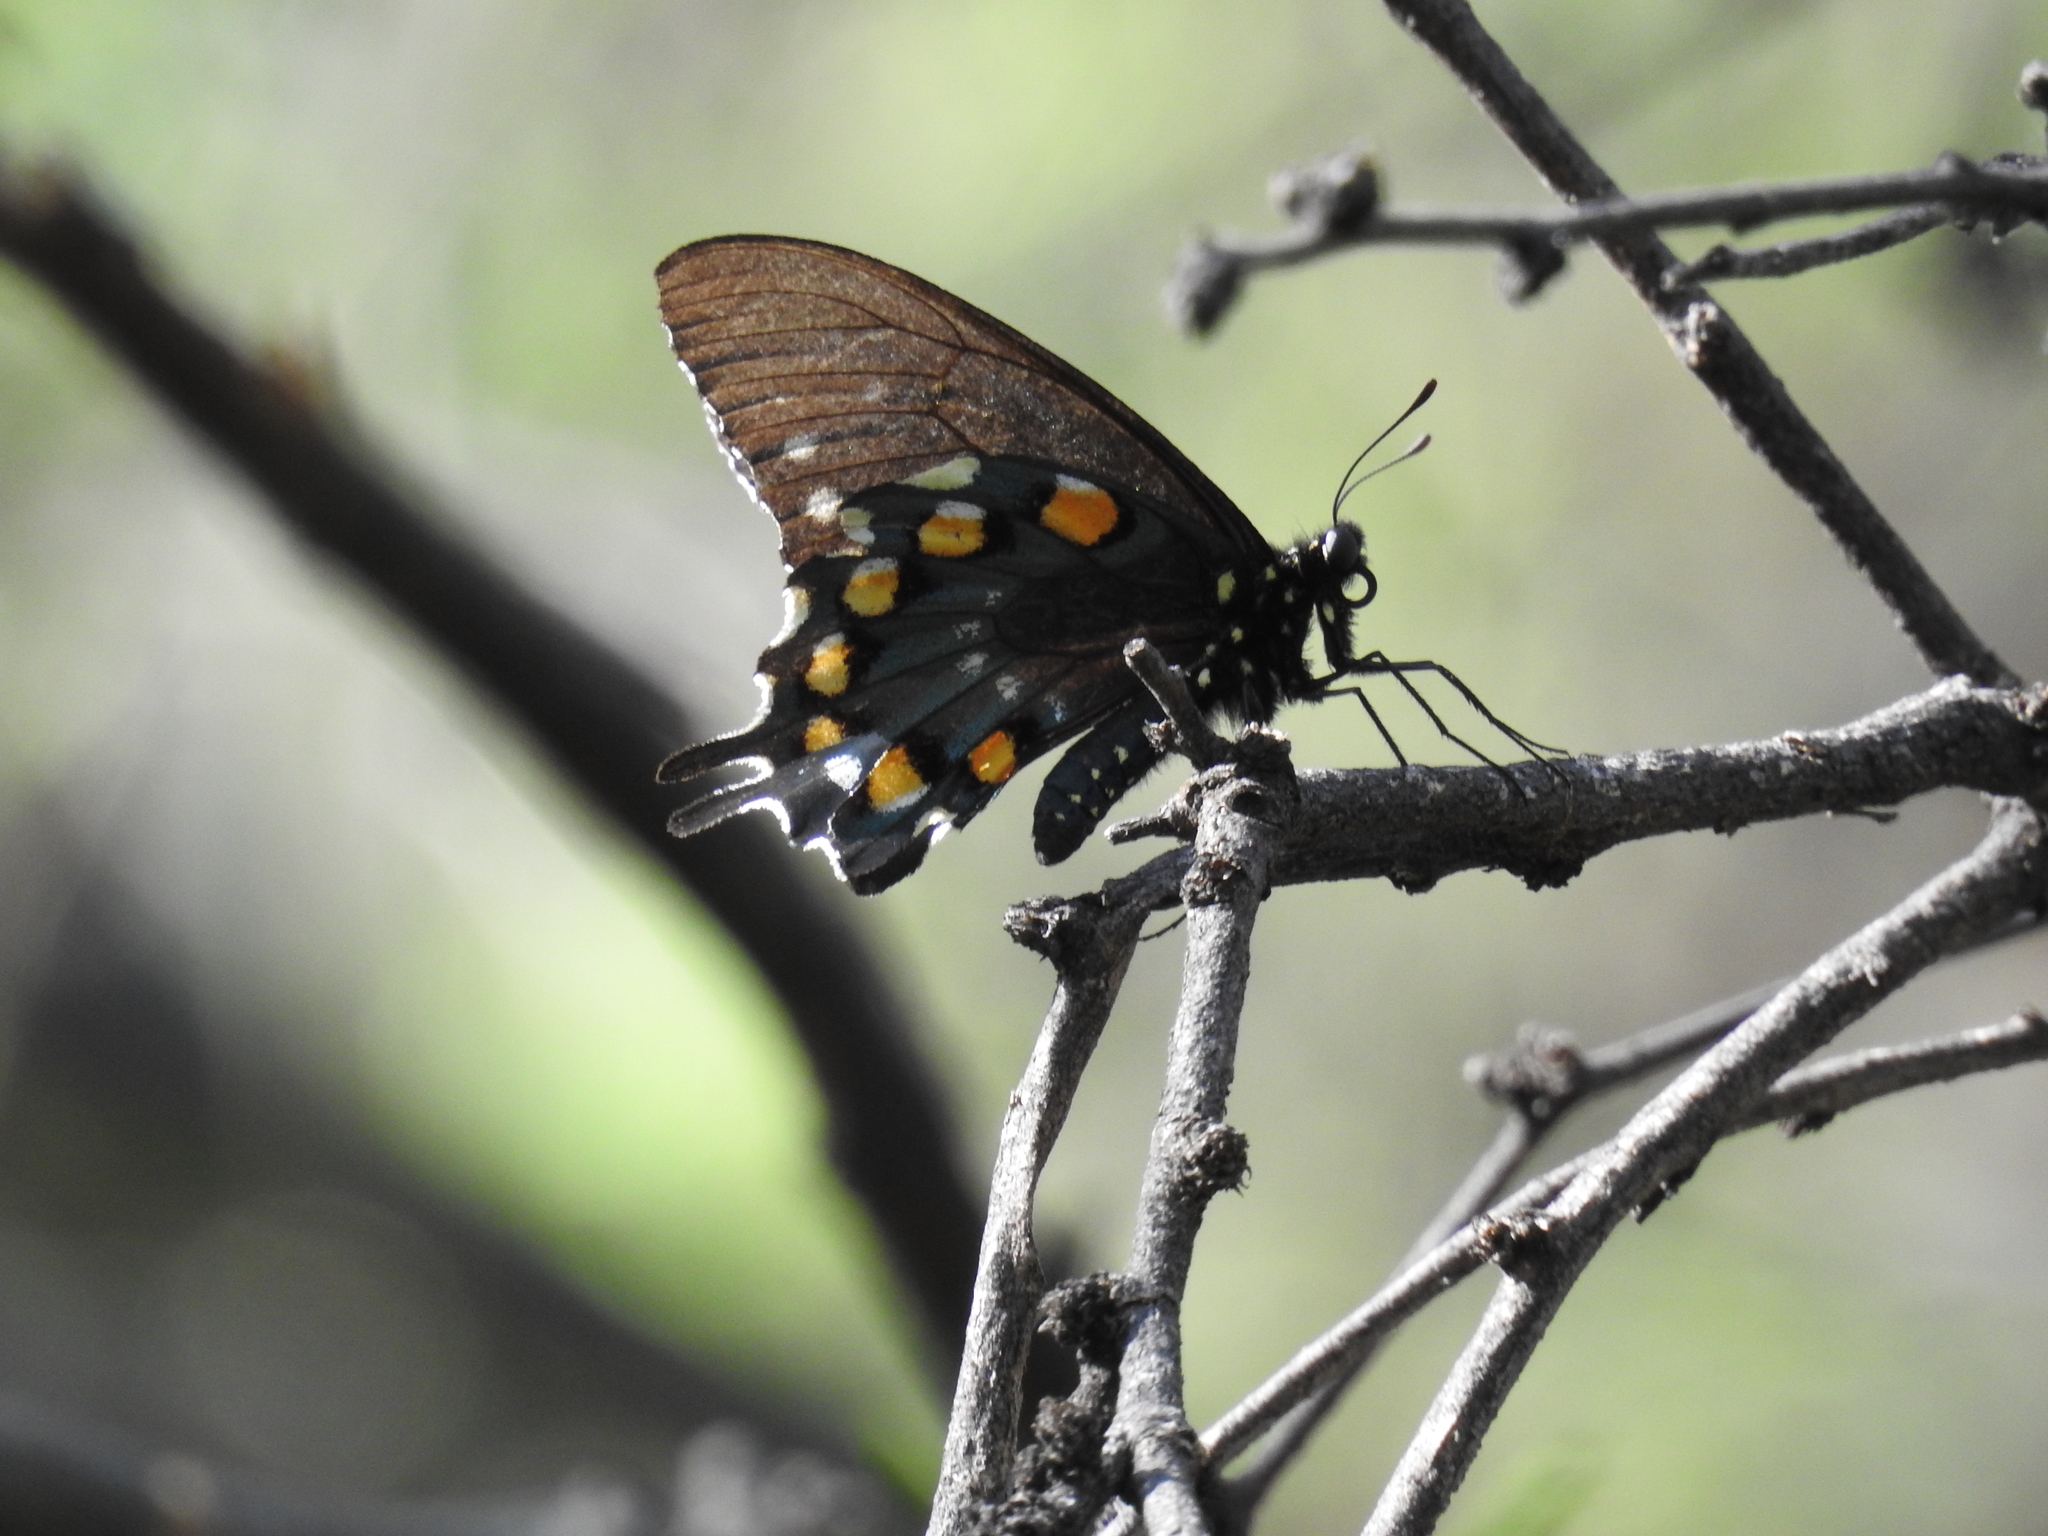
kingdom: Animalia
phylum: Arthropoda
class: Insecta
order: Lepidoptera
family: Papilionidae
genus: Battus
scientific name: Battus philenor
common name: Pipevine swallowtail
